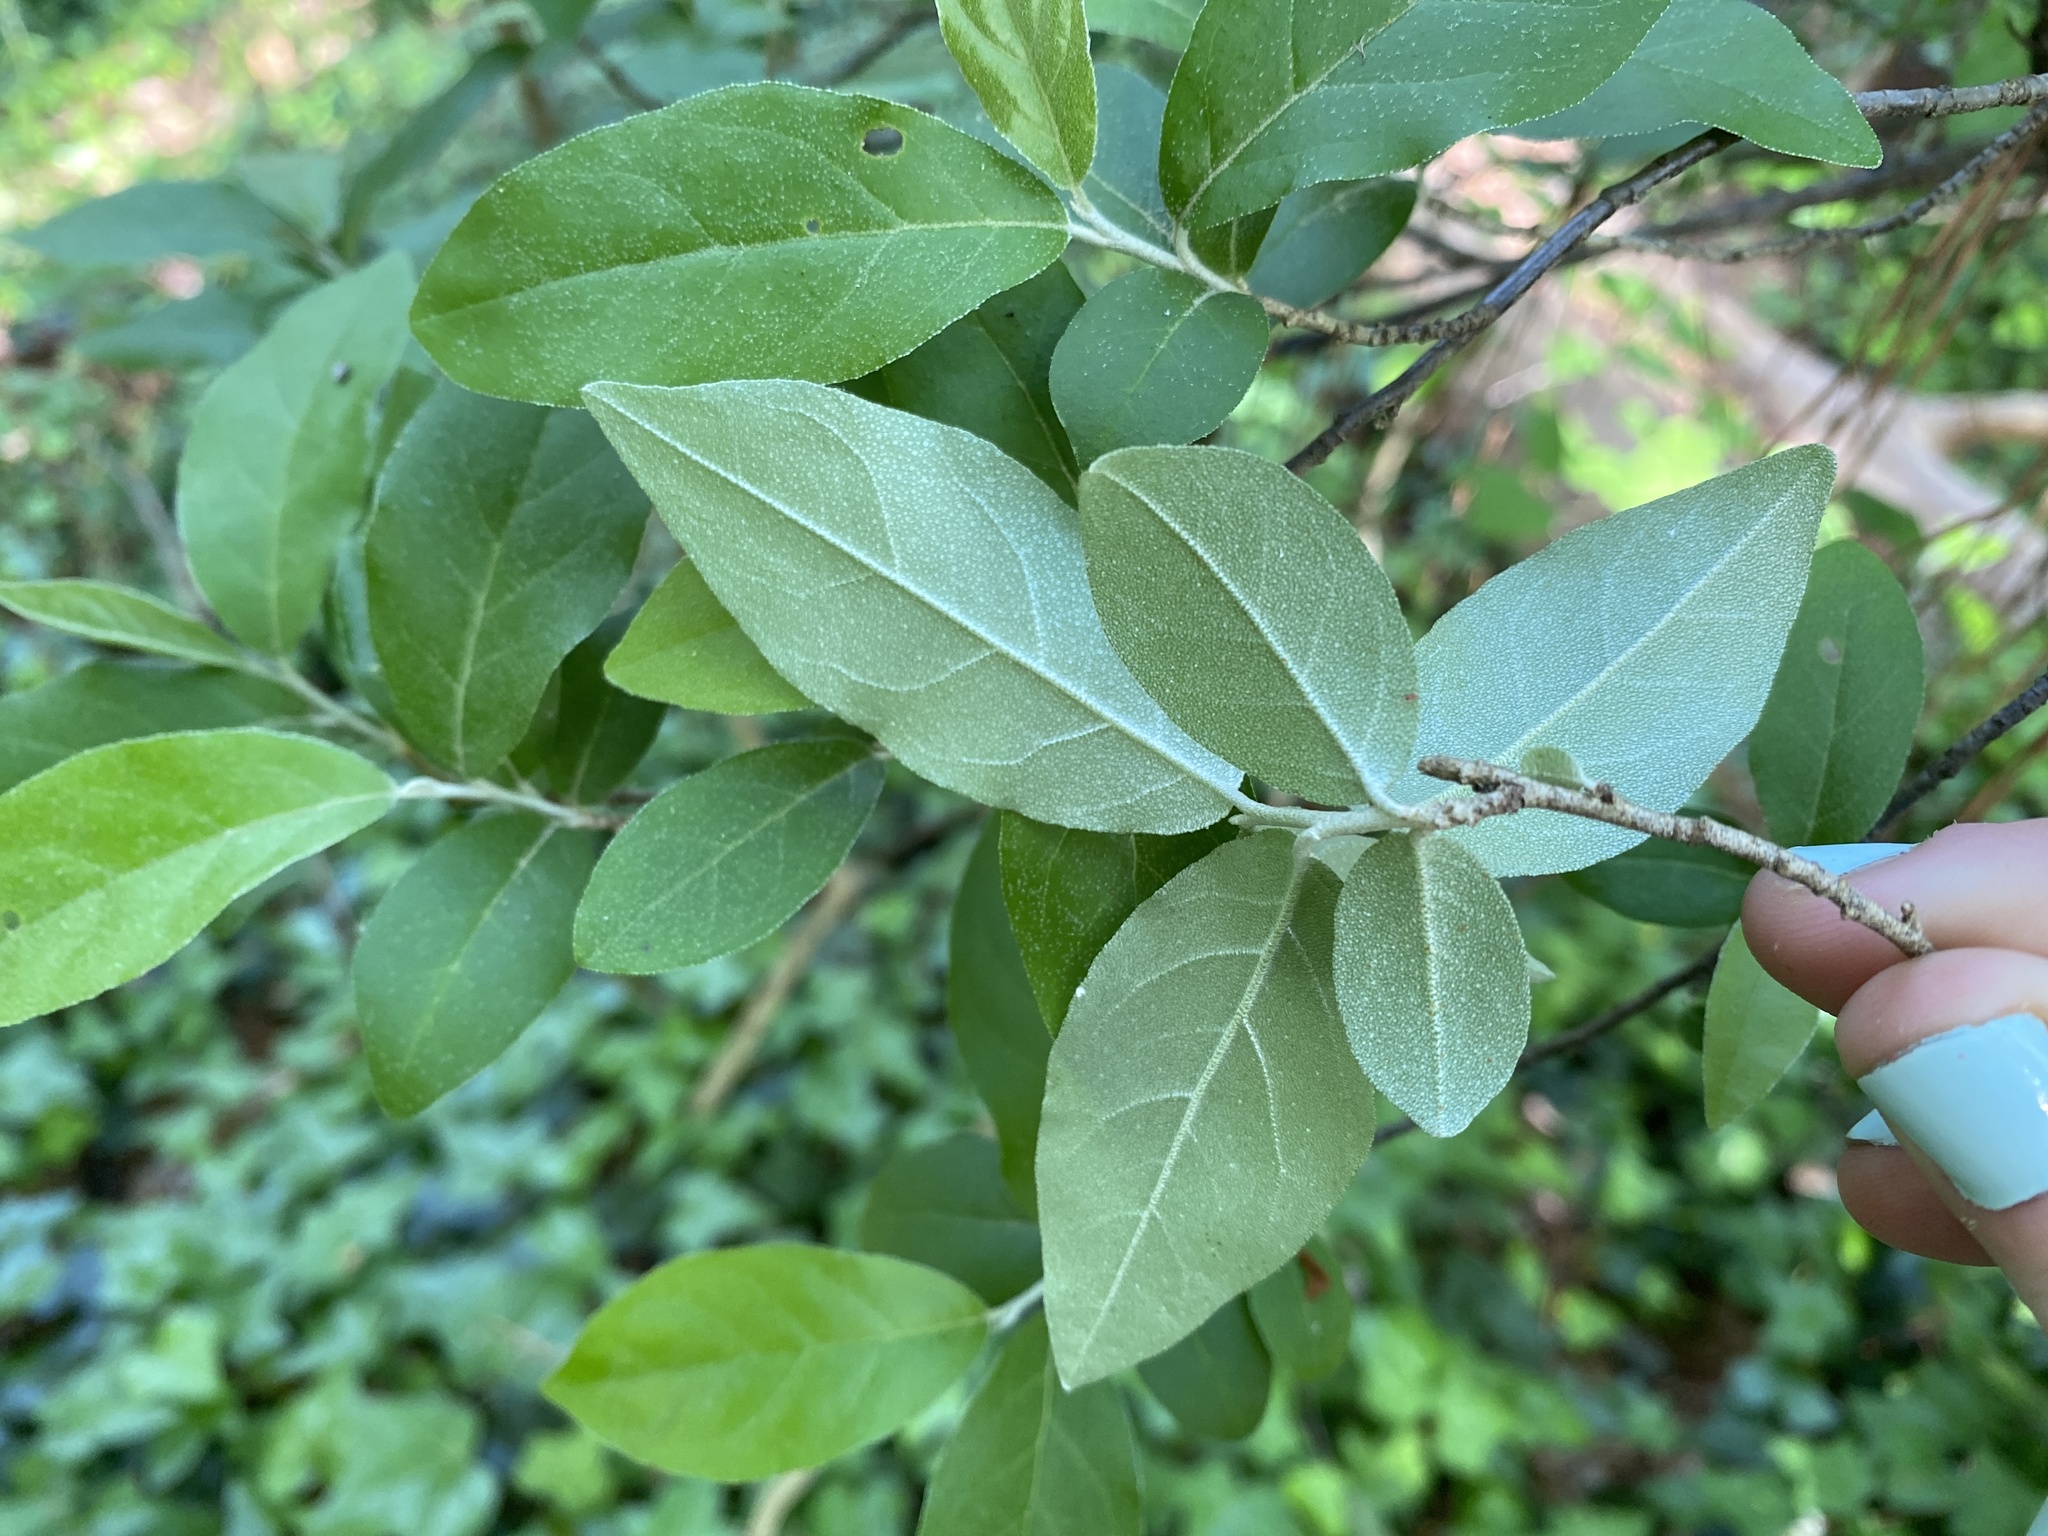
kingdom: Plantae
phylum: Tracheophyta
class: Magnoliopsida
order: Rosales
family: Elaeagnaceae
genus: Elaeagnus
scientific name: Elaeagnus umbellata
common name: Autumn olive
